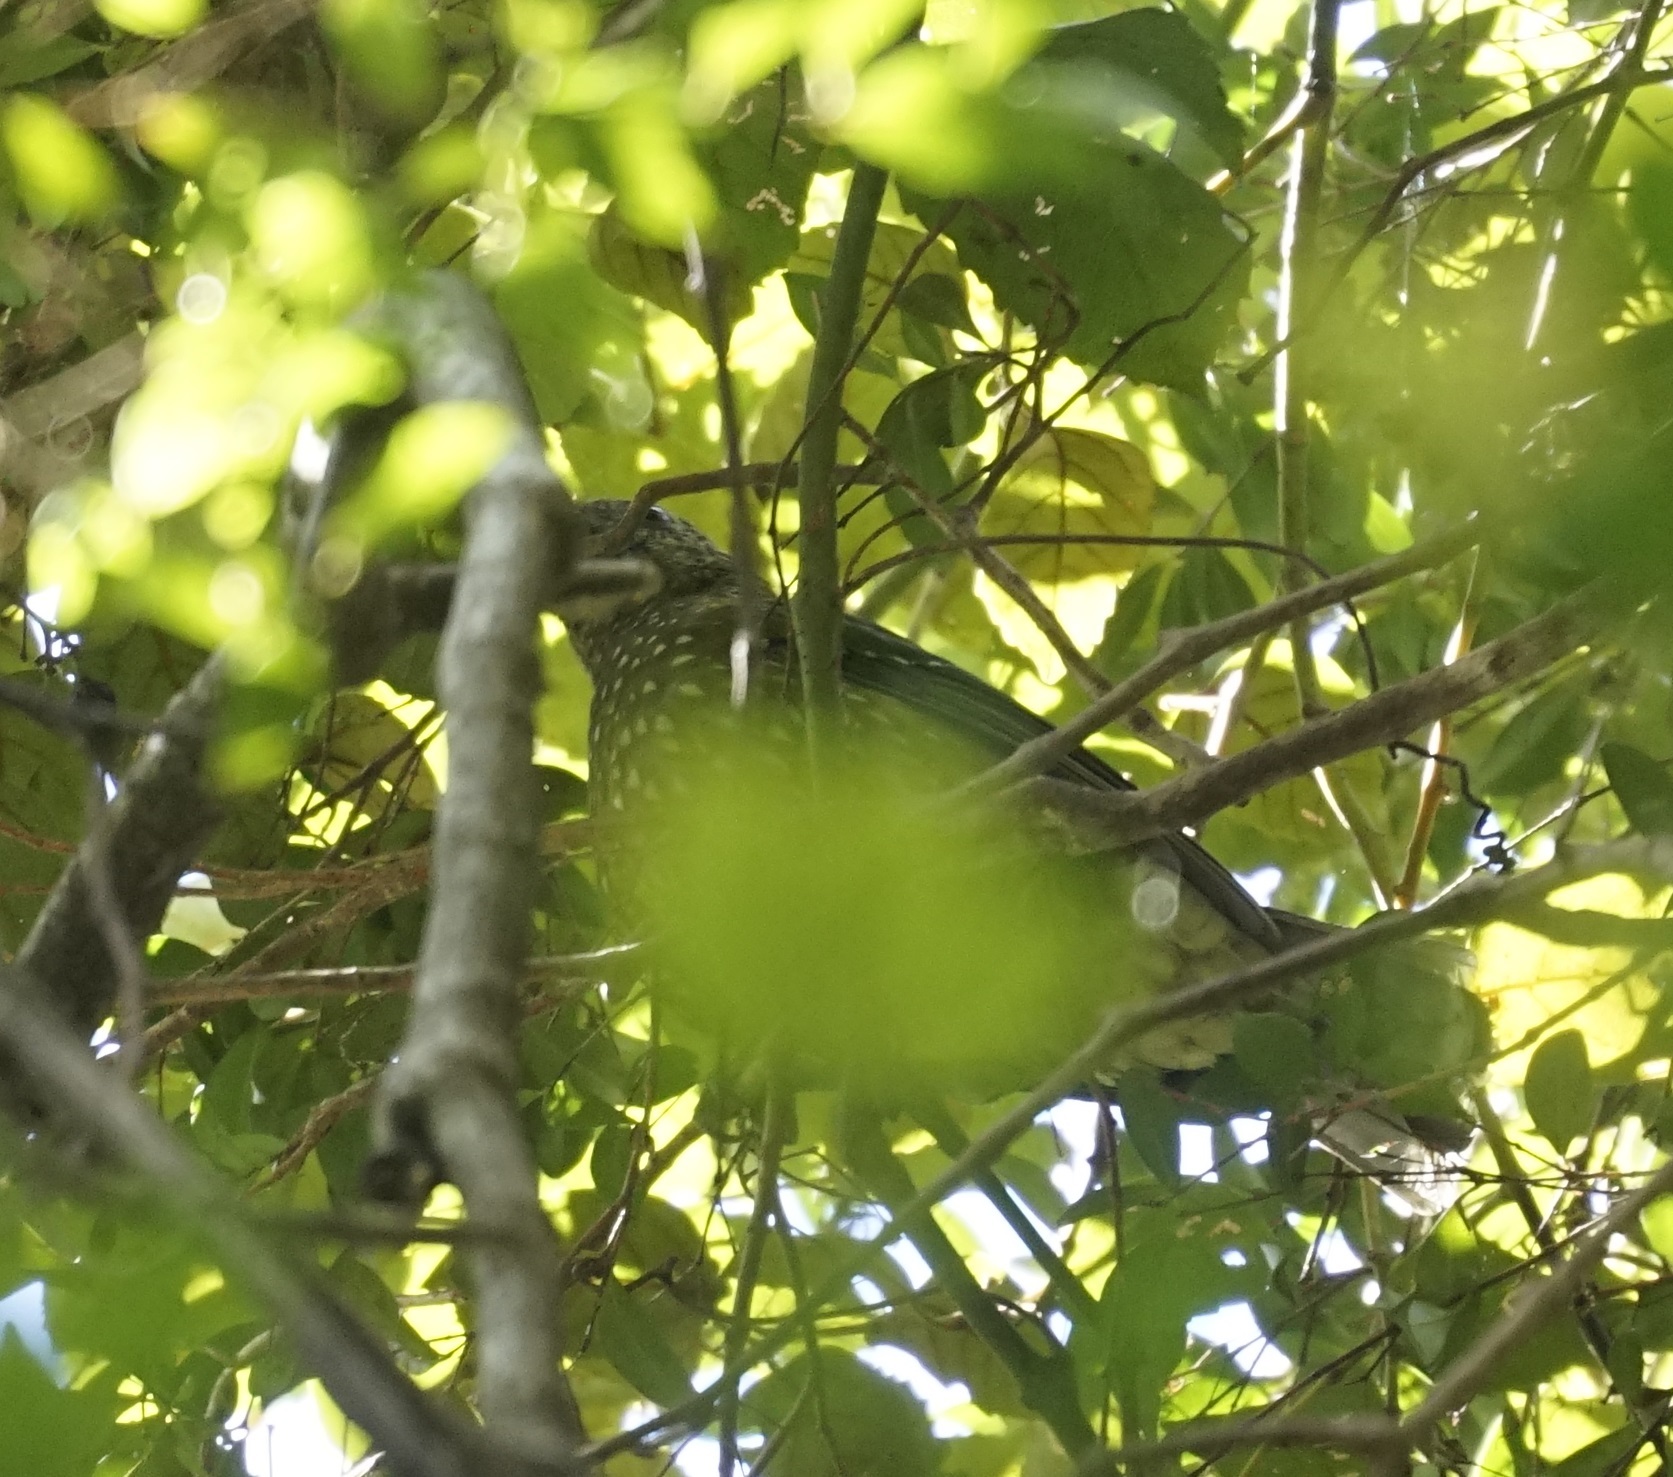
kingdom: Animalia
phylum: Chordata
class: Aves
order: Passeriformes
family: Ptilonorhynchidae
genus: Ailuroedus
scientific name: Ailuroedus crassirostris
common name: Green catbird
